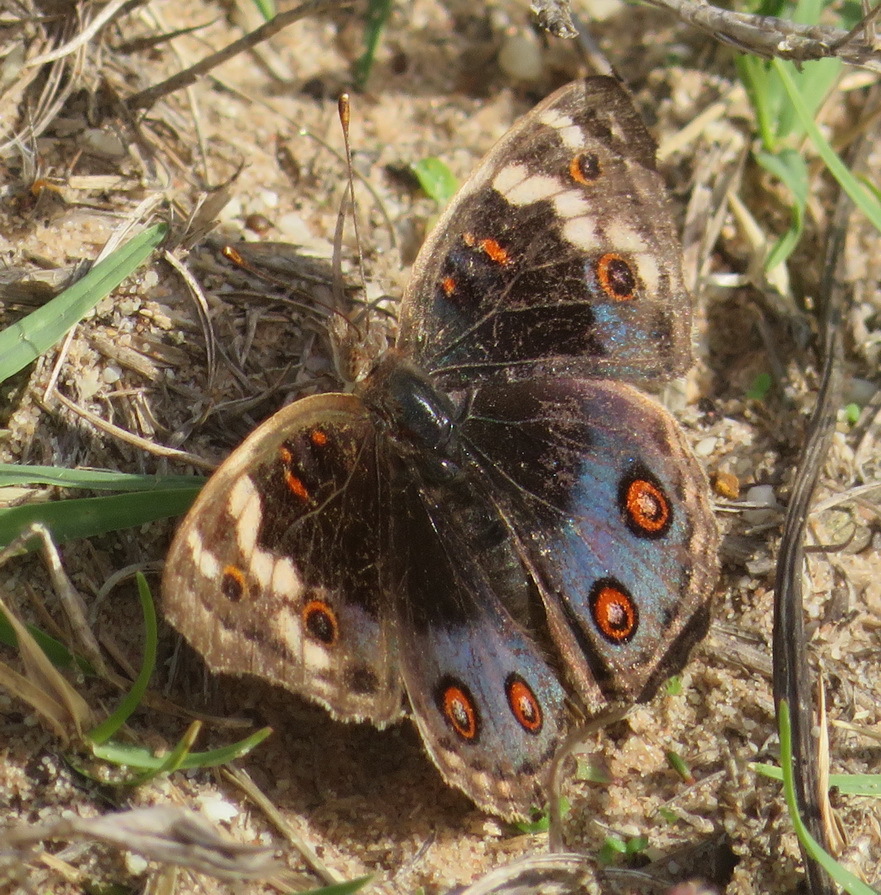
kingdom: Animalia
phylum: Arthropoda
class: Insecta
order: Lepidoptera
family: Nymphalidae
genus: Junonia
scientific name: Junonia orithya
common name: Blue pansy
